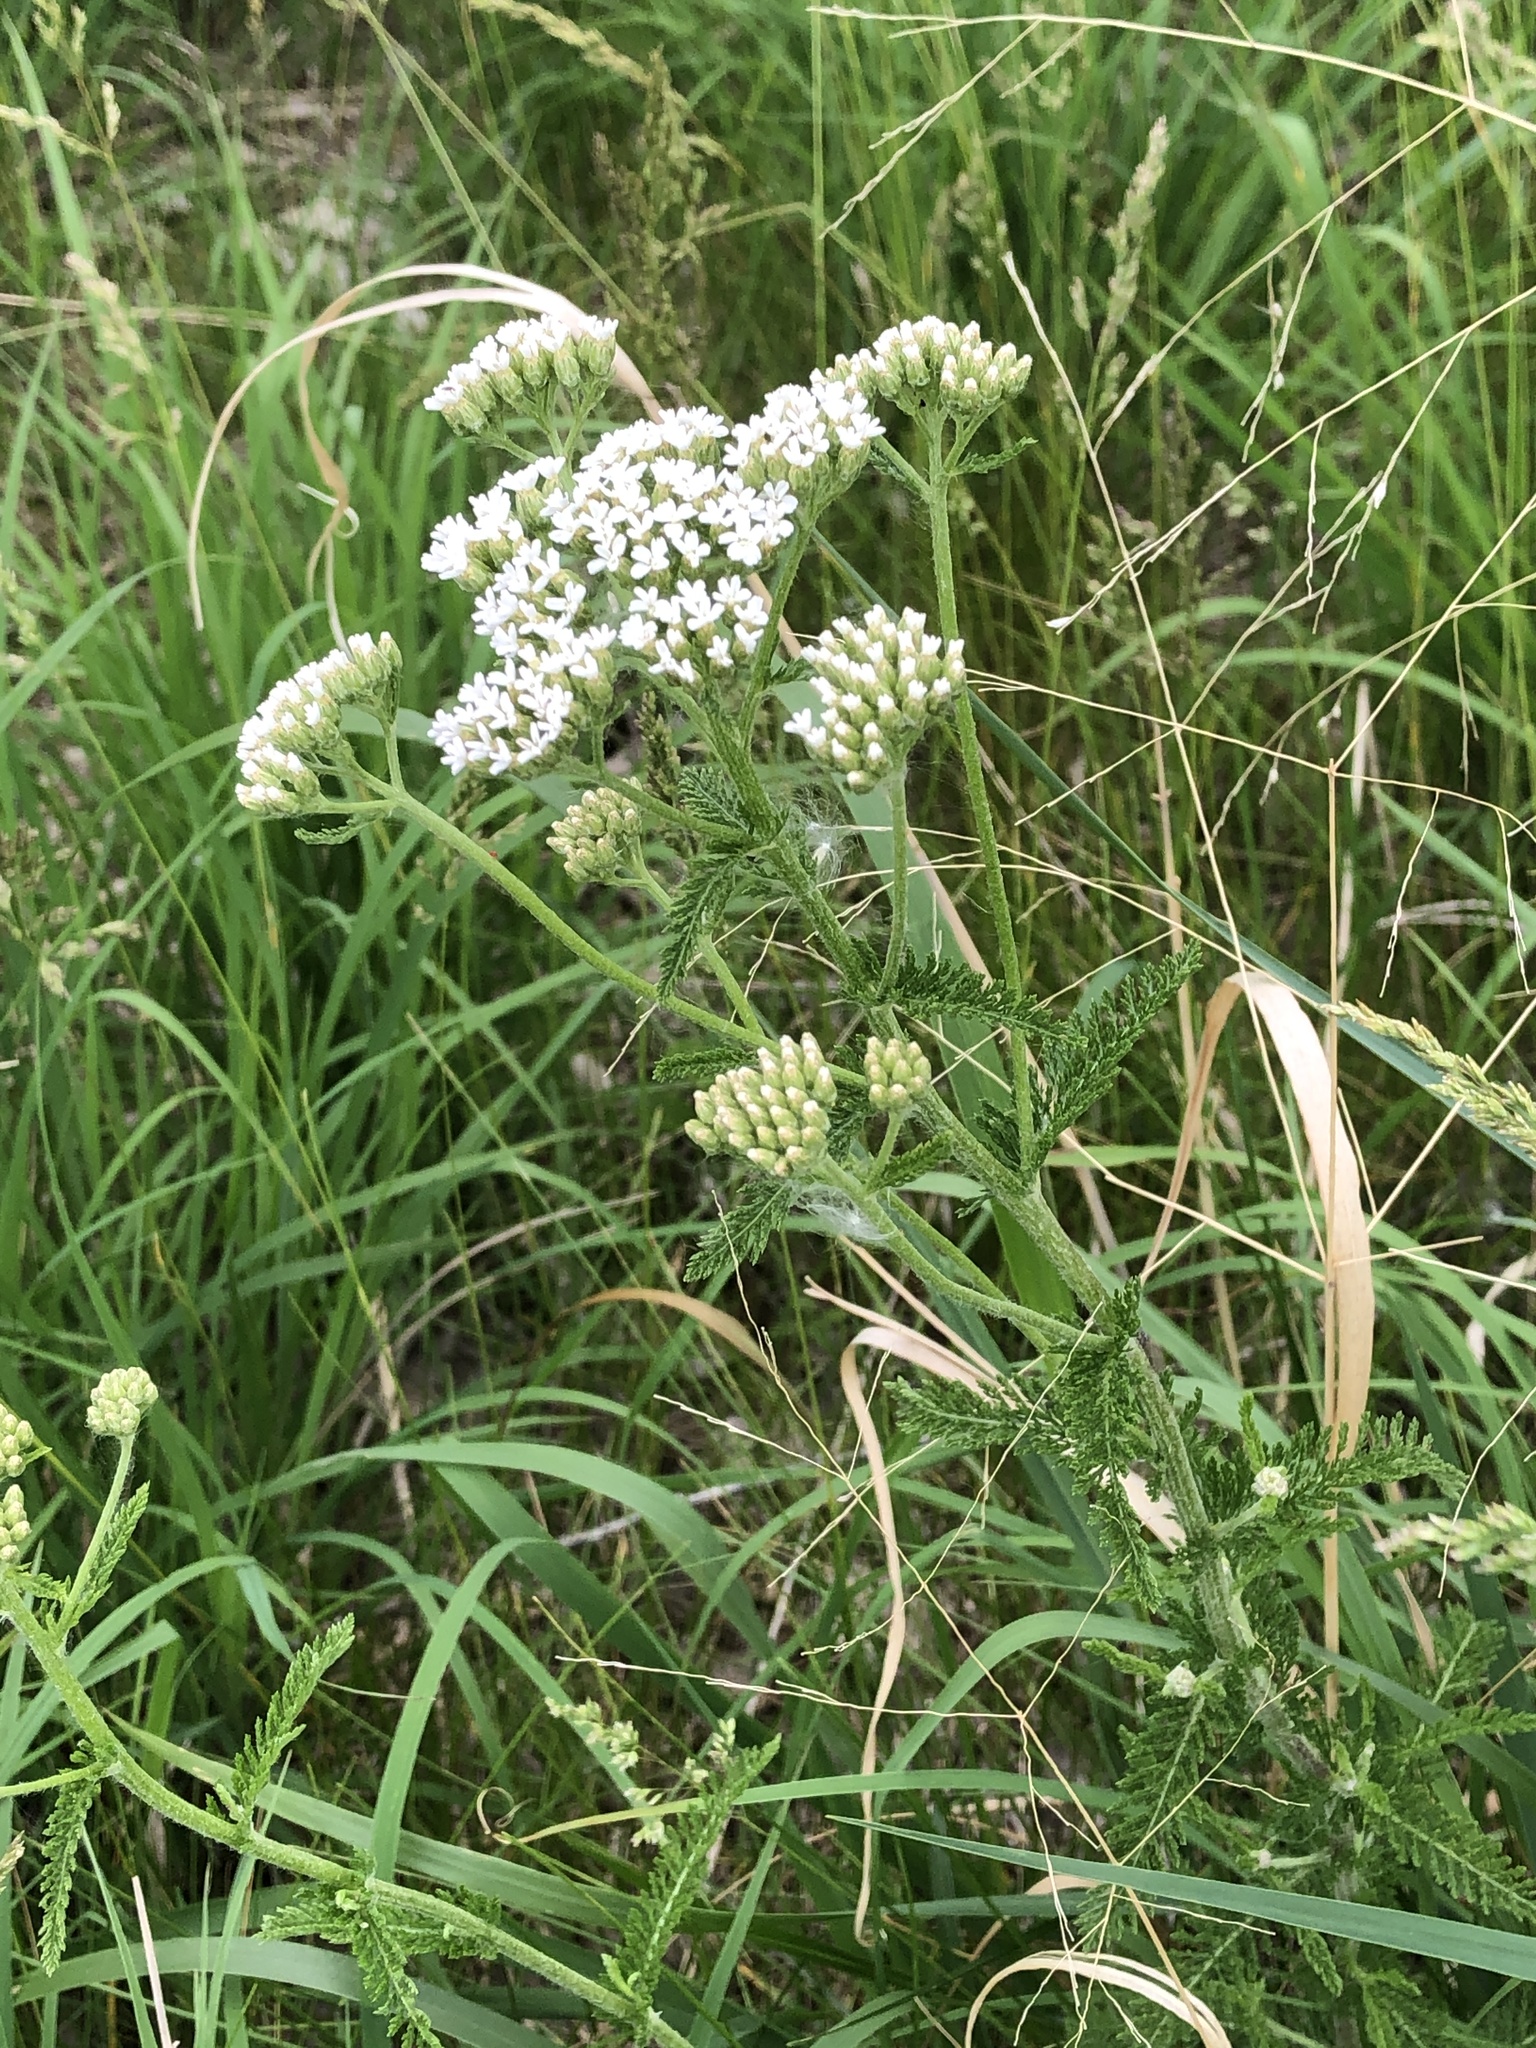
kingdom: Plantae
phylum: Tracheophyta
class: Magnoliopsida
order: Asterales
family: Asteraceae
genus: Achillea
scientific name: Achillea millefolium
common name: Yarrow
